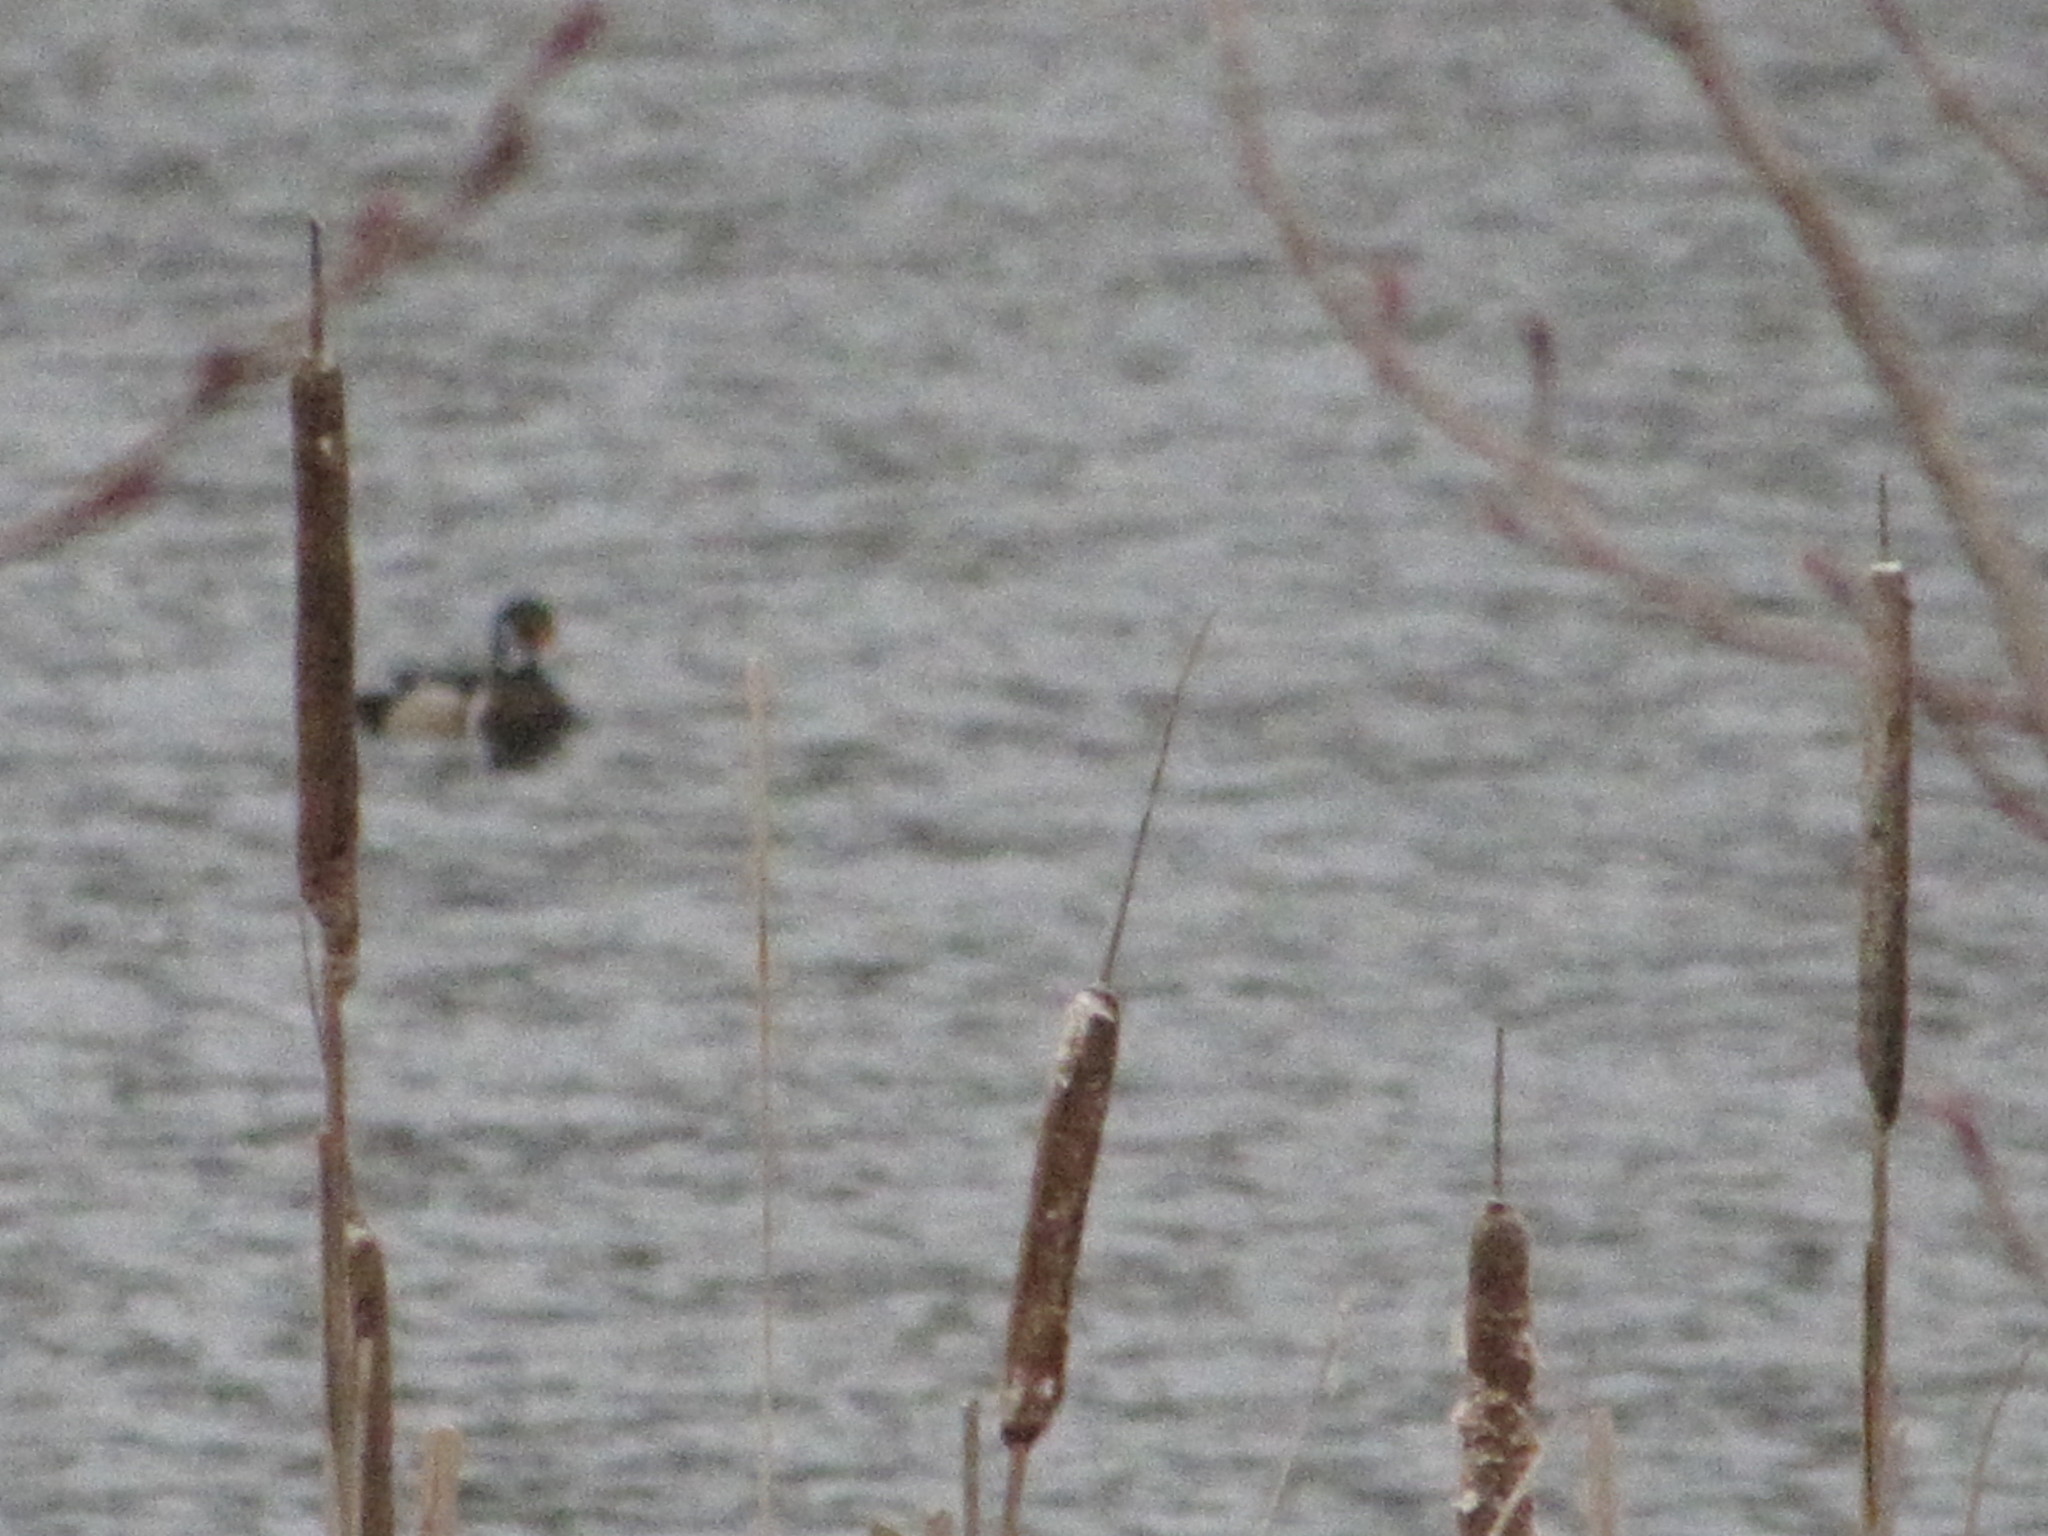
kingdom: Animalia
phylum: Chordata
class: Aves
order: Anseriformes
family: Anatidae
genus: Aix
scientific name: Aix sponsa
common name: Wood duck
